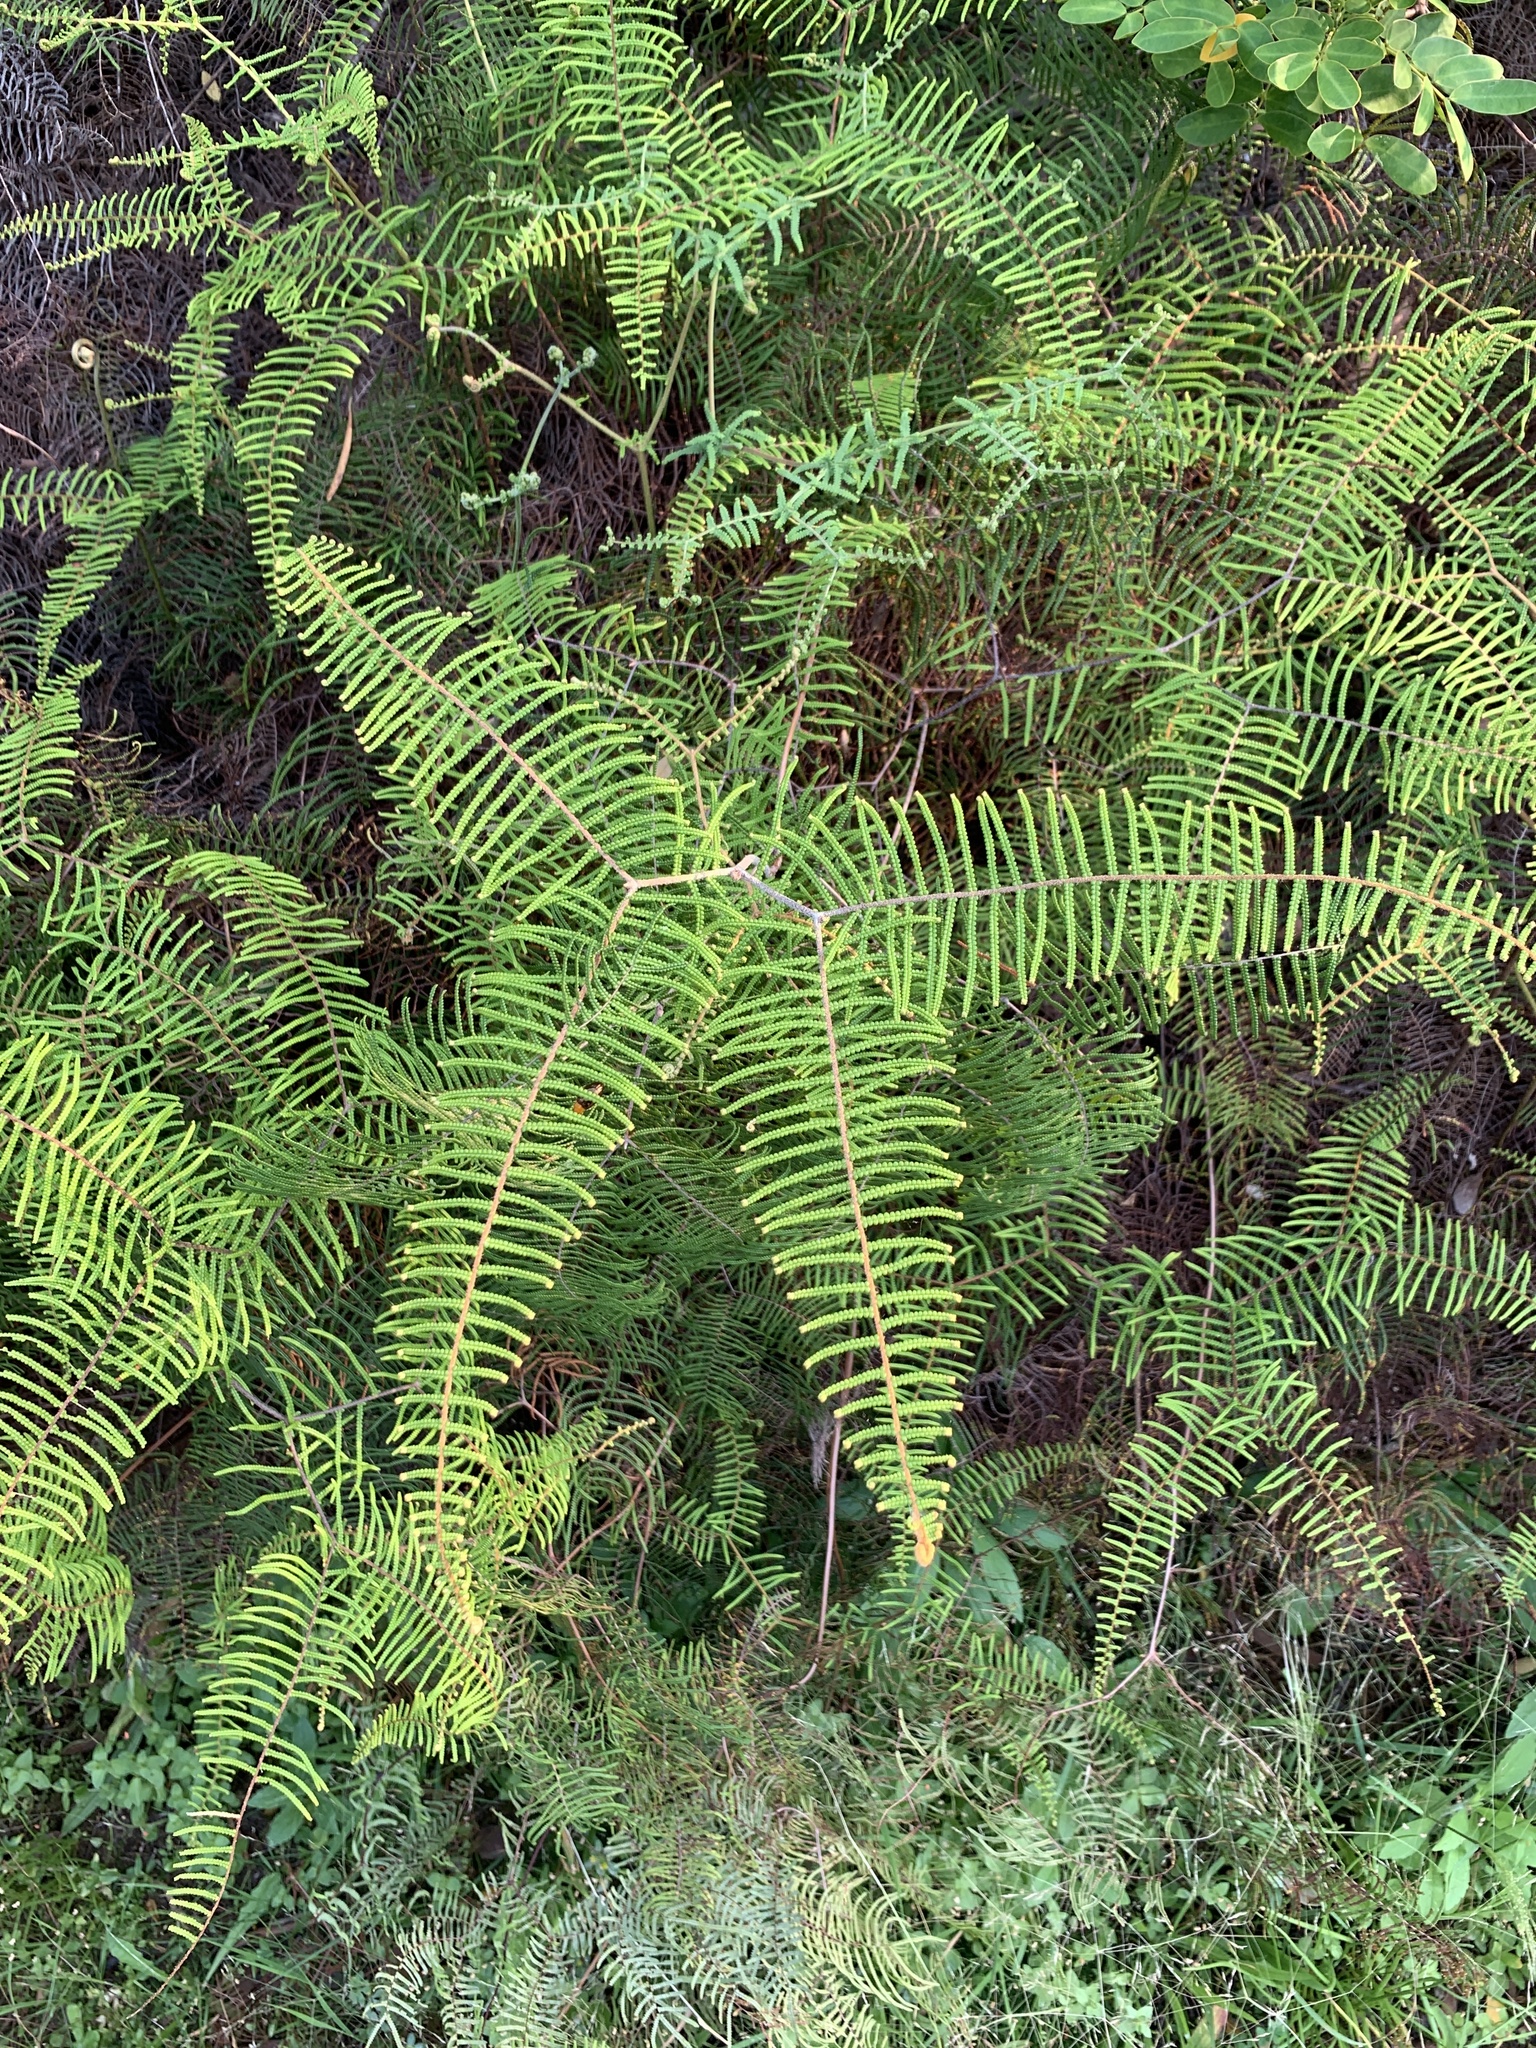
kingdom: Plantae
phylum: Tracheophyta
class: Polypodiopsida
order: Gleicheniales
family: Gleicheniaceae
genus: Gleichenia
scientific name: Gleichenia dicarpa
